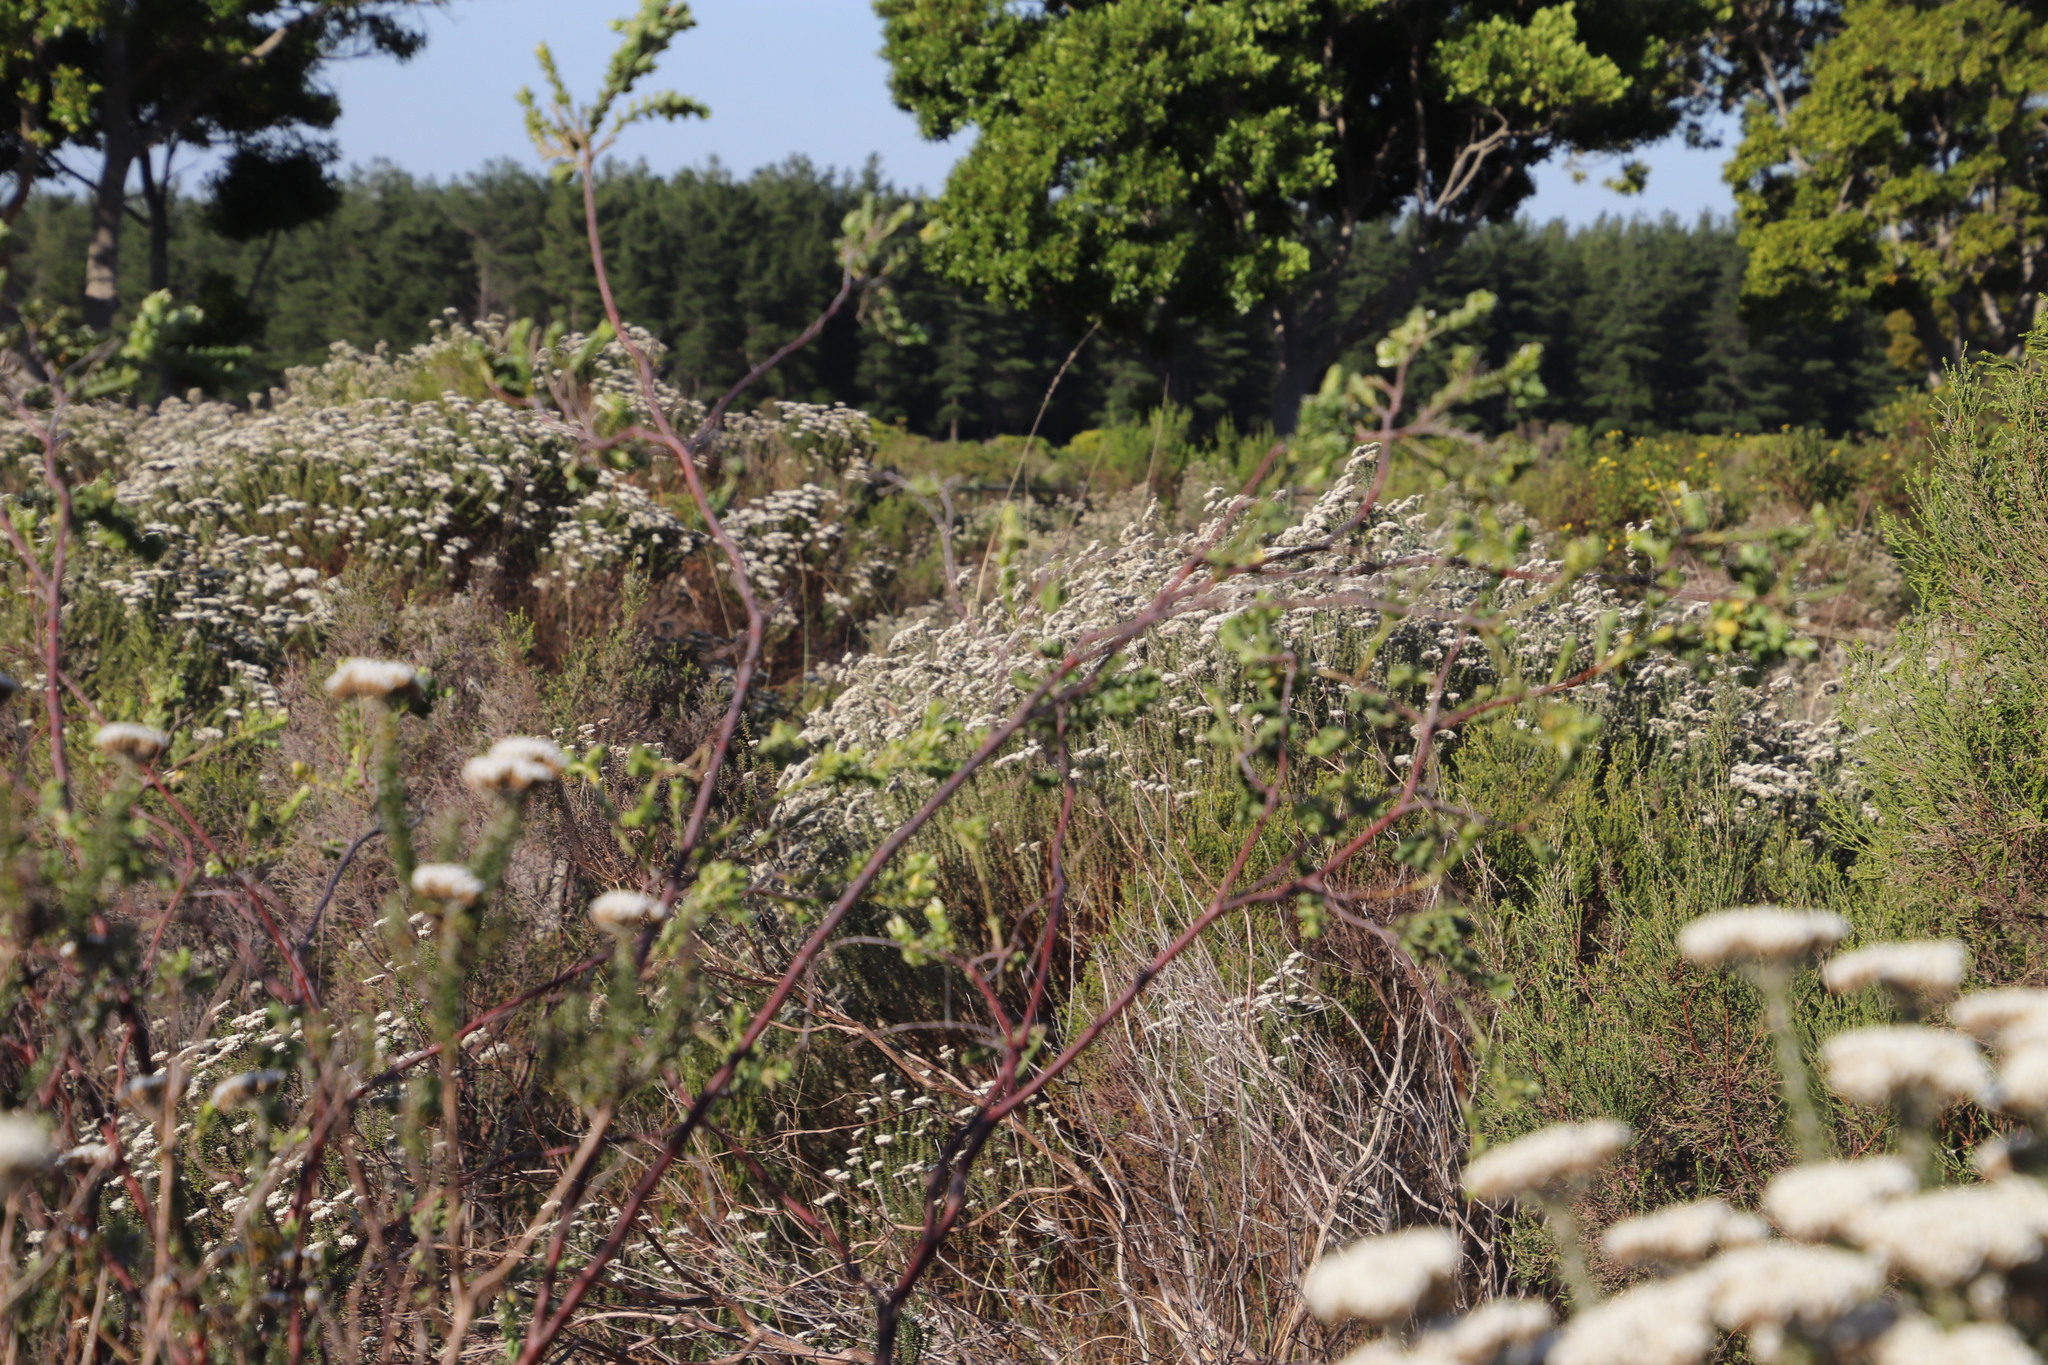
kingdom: Plantae
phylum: Tracheophyta
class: Magnoliopsida
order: Malvales
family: Thymelaeaceae
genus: Gnidia
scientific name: Gnidia sericea
